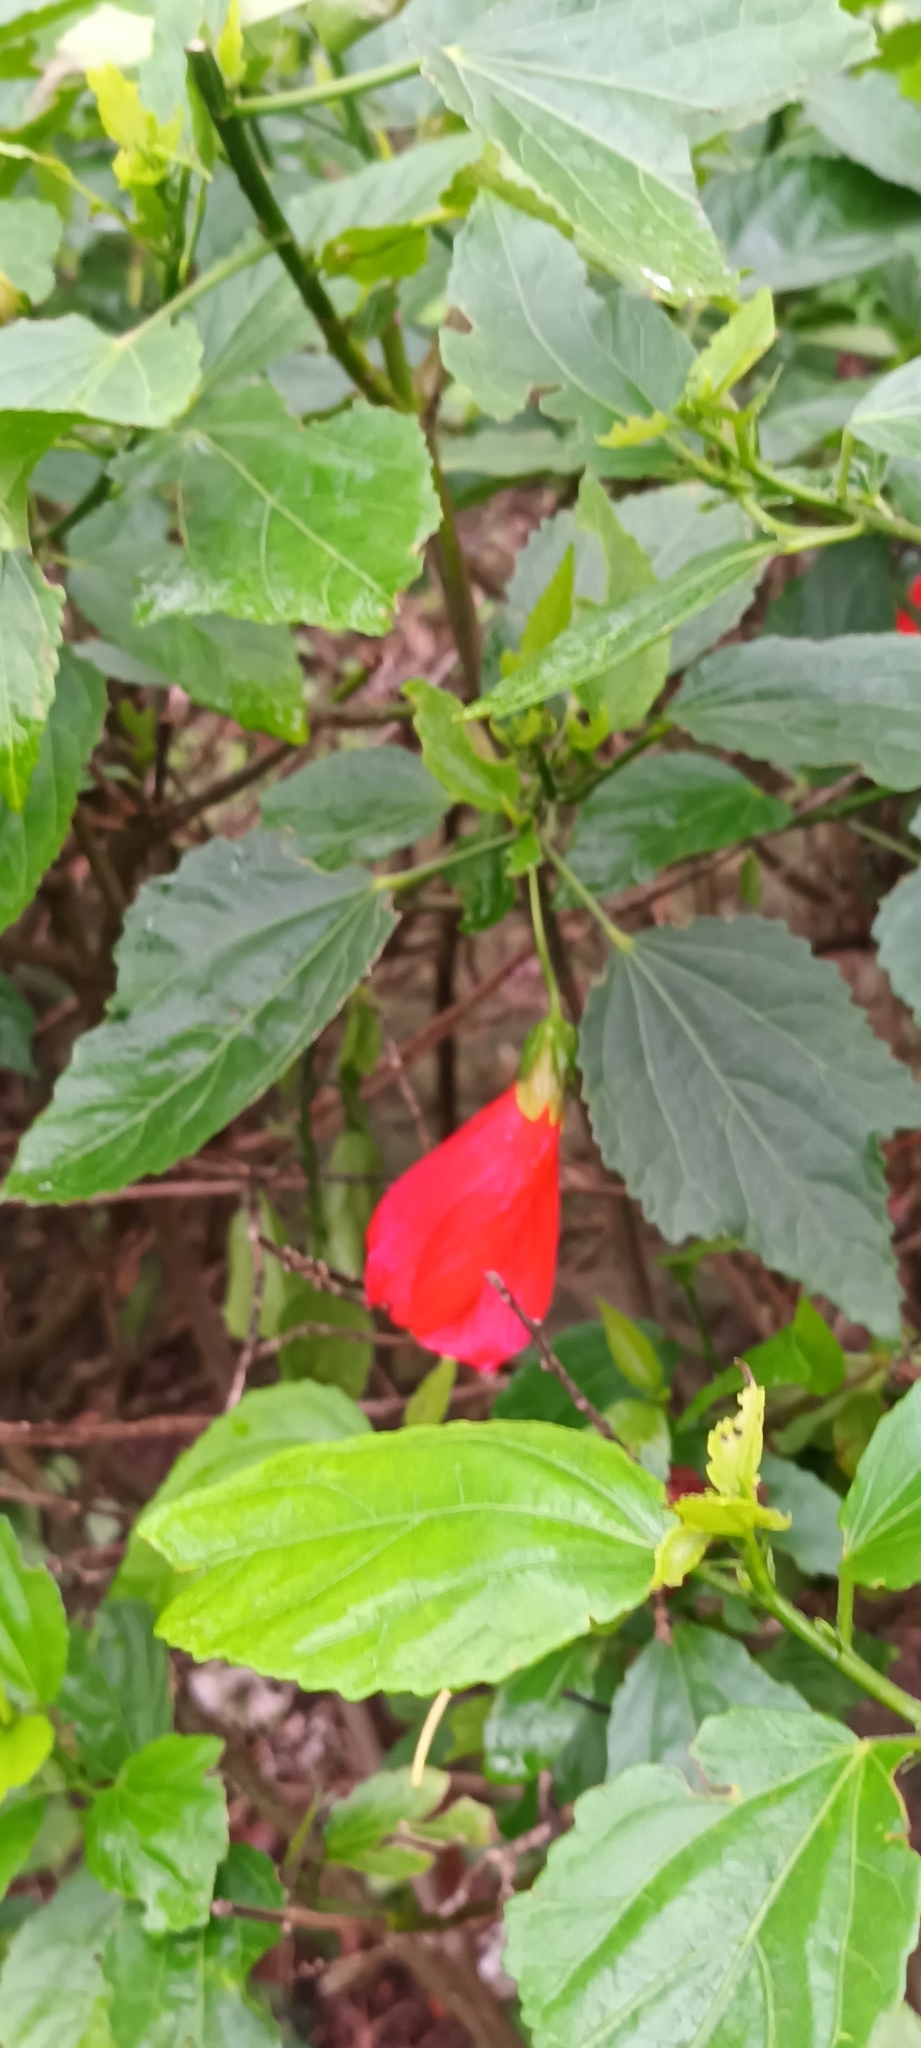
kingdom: Plantae
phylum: Tracheophyta
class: Magnoliopsida
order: Malvales
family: Malvaceae
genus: Malvaviscus
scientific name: Malvaviscus penduliflorus
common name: Mazapan
